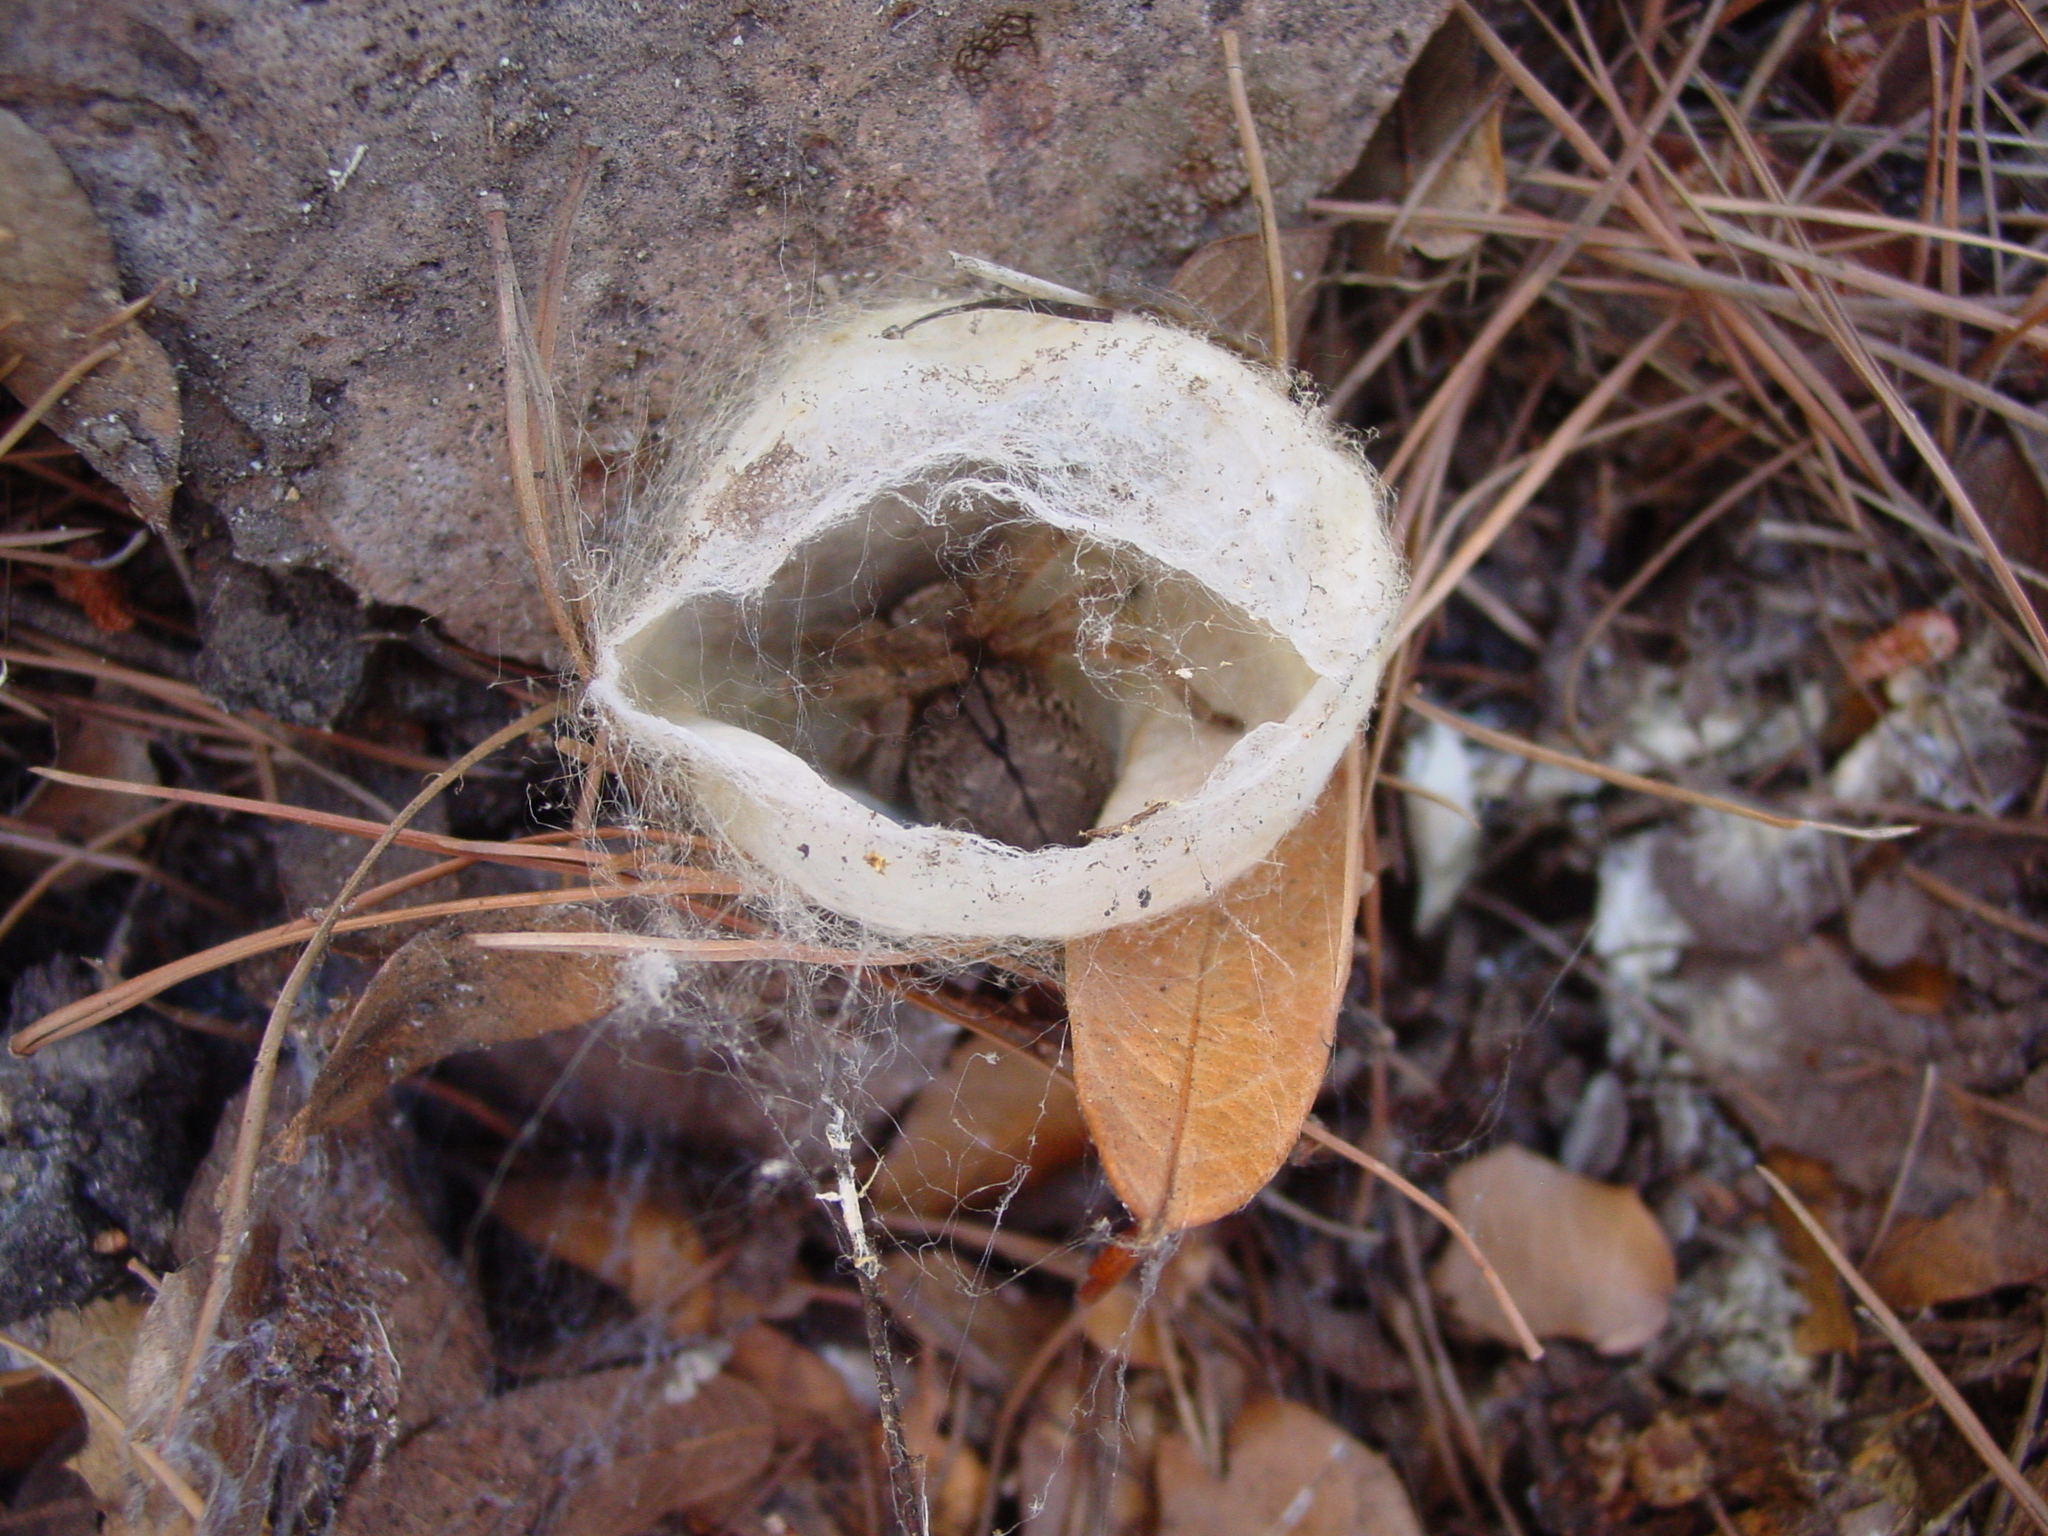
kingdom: Animalia
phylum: Arthropoda
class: Arachnida
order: Araneae
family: Sparassidae
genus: Olios
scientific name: Olios giganteus
